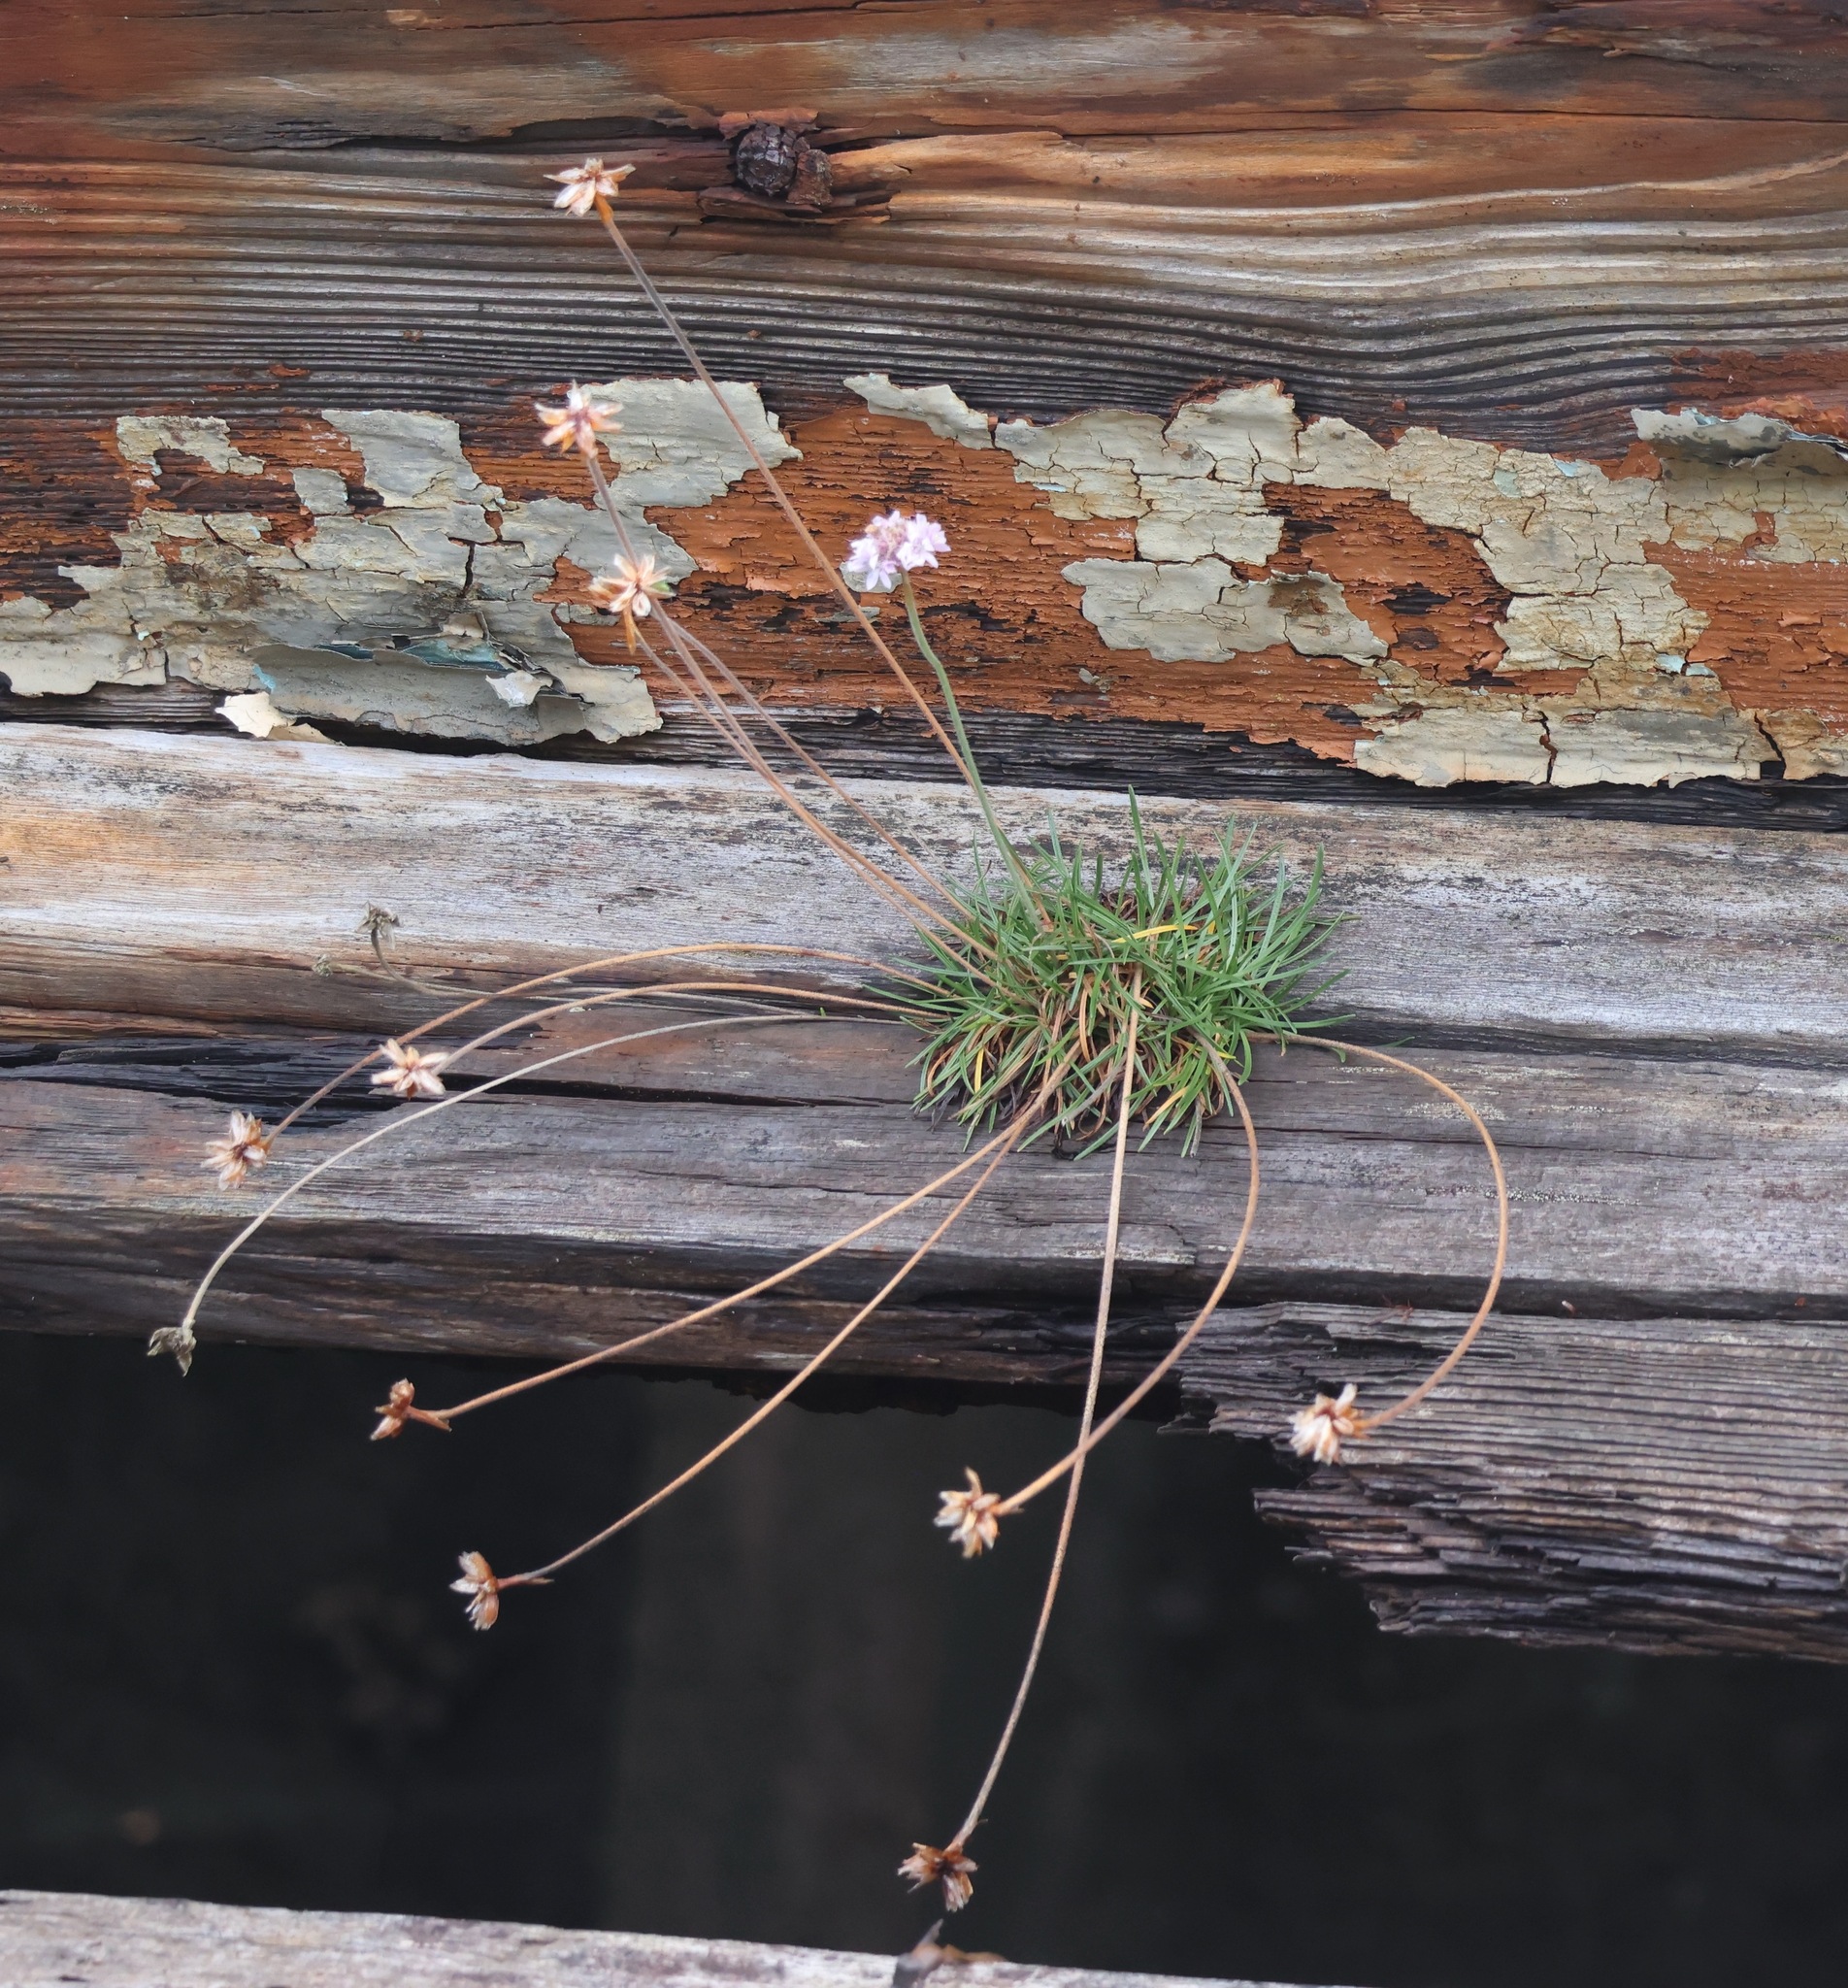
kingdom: Plantae
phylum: Tracheophyta
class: Magnoliopsida
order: Caryophyllales
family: Plumbaginaceae
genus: Armeria
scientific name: Armeria maritima
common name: Thrift
